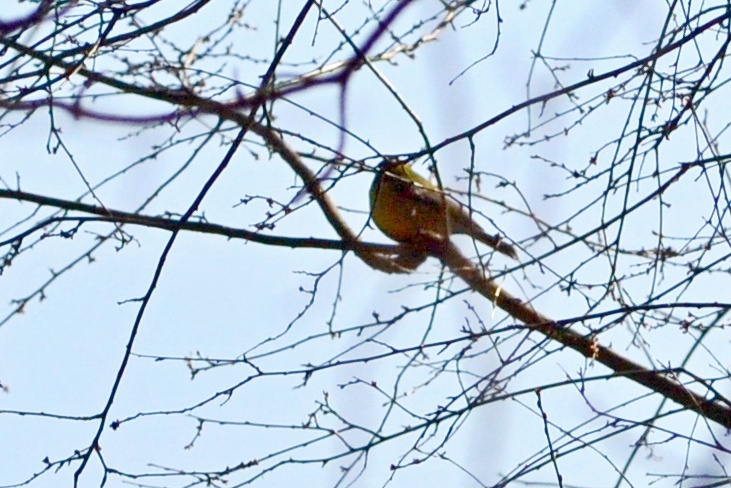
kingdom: Animalia
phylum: Chordata
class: Aves
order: Passeriformes
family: Paridae
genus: Parus
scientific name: Parus major
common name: Great tit
